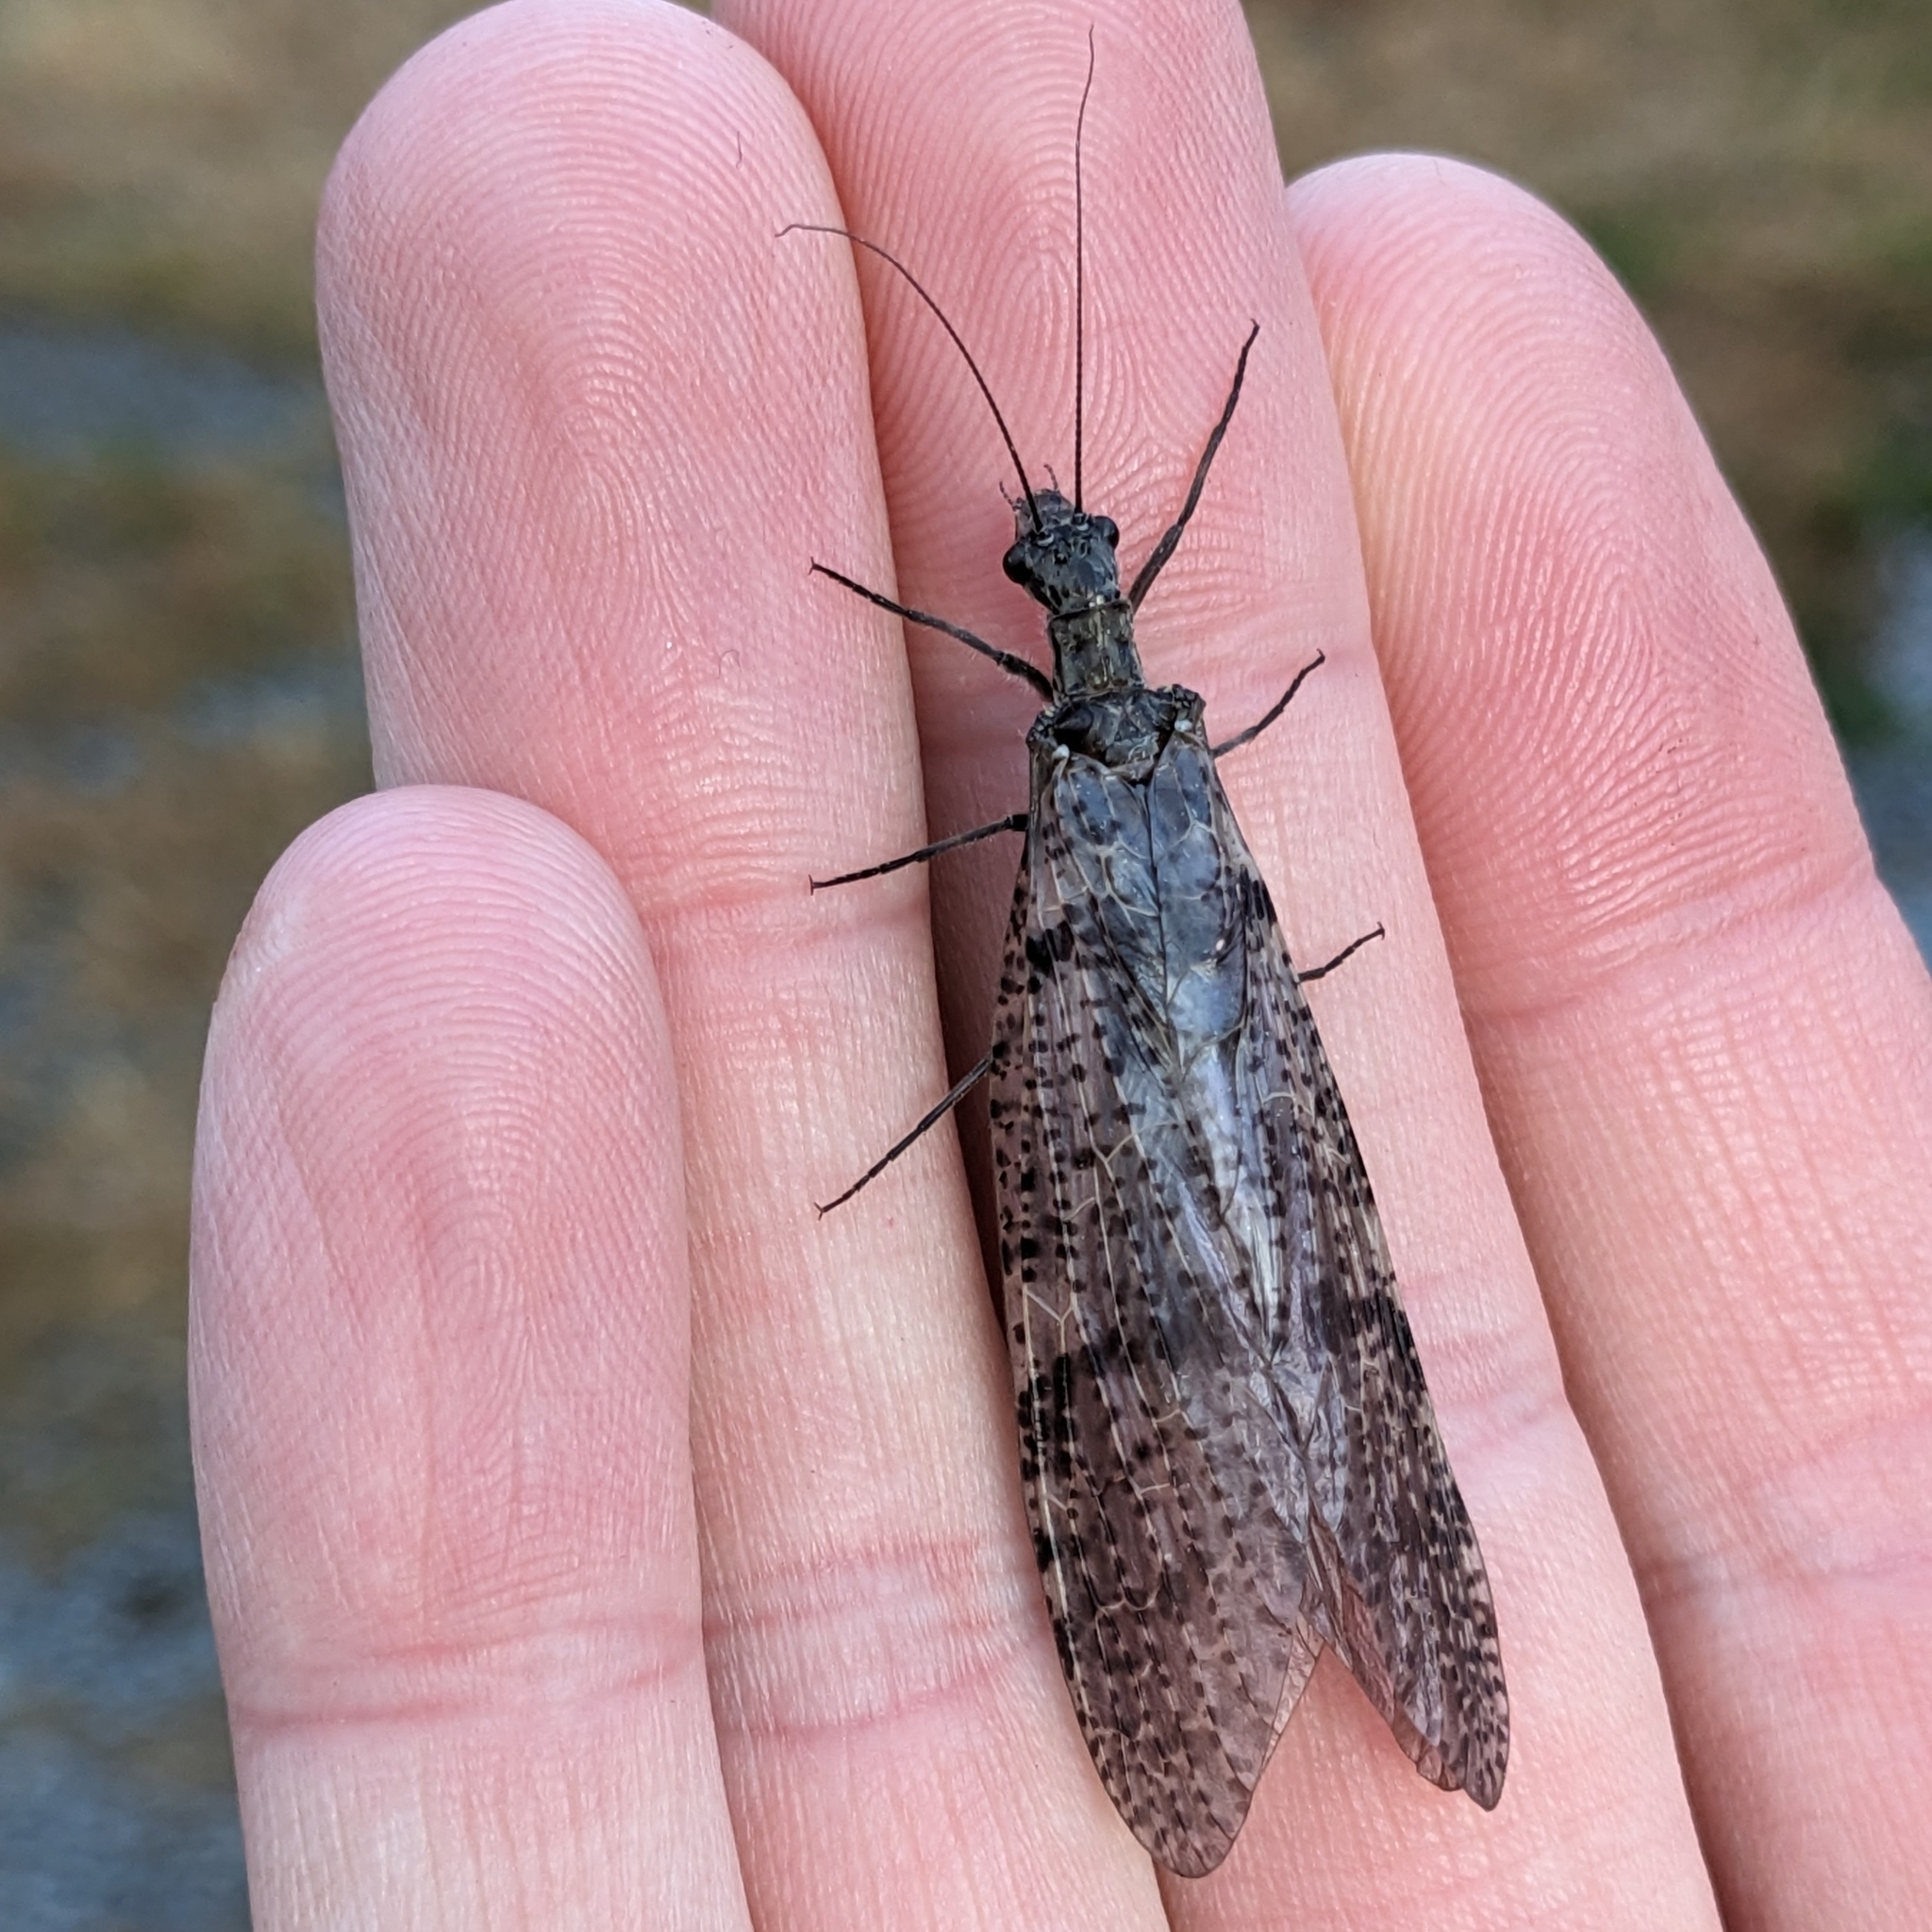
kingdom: Animalia
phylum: Arthropoda
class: Insecta
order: Megaloptera
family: Corydalidae
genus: Archichauliodes
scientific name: Archichauliodes diversus
